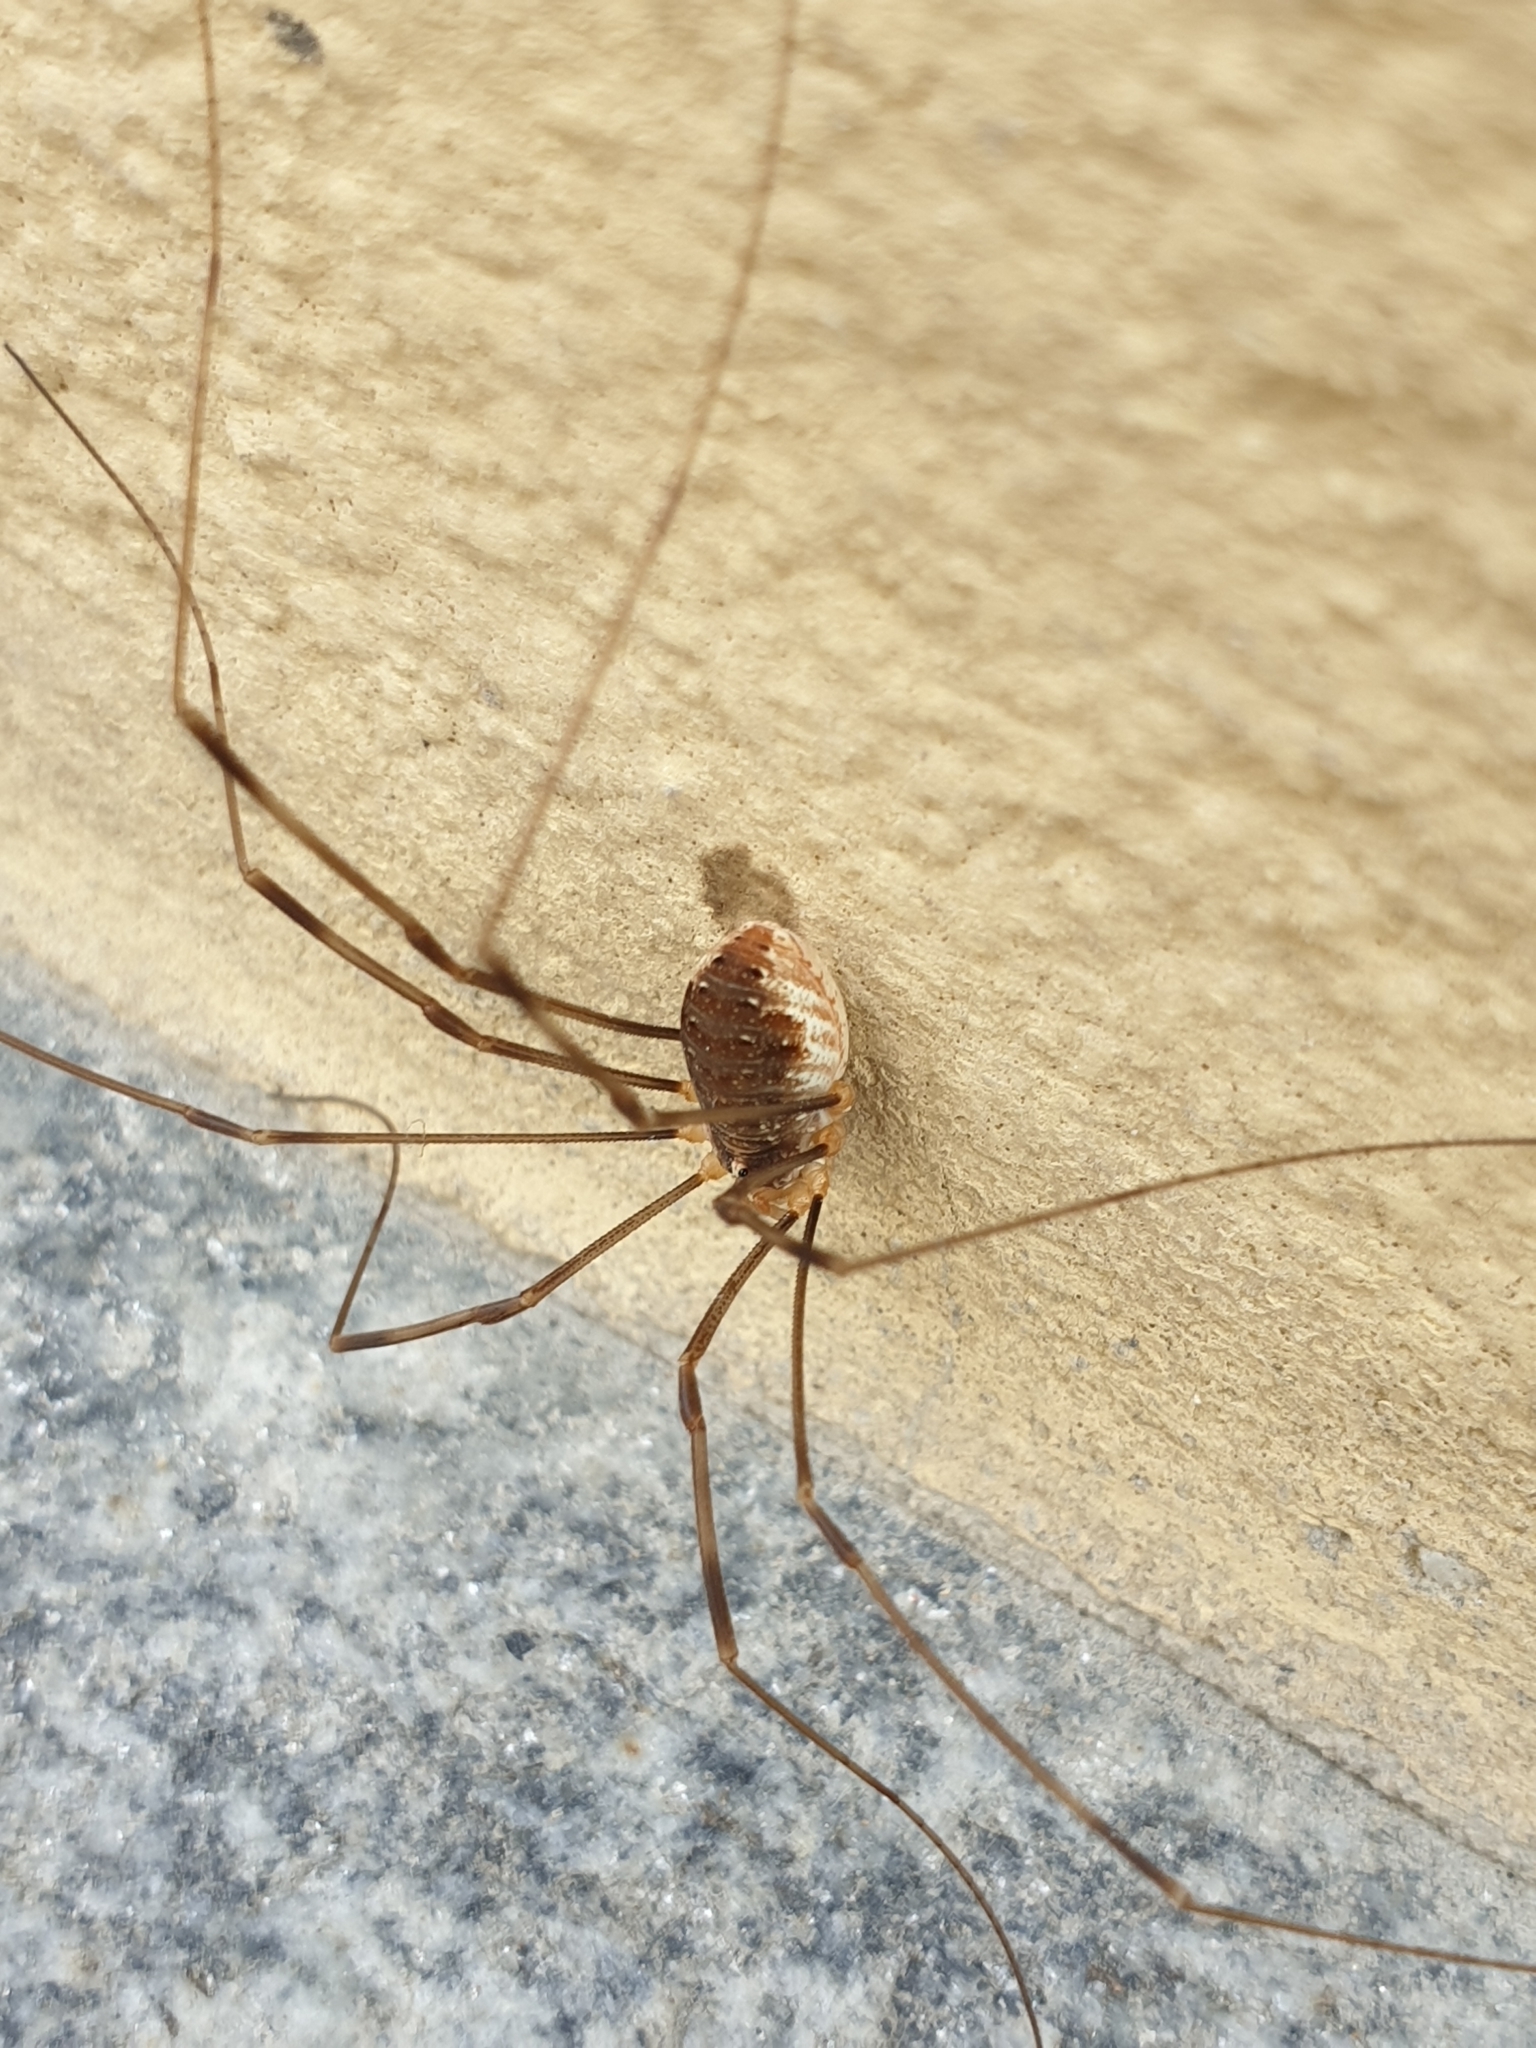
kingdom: Animalia
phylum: Arthropoda
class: Arachnida
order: Opiliones
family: Phalangiidae
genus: Opilio
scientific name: Opilio canestrinii
